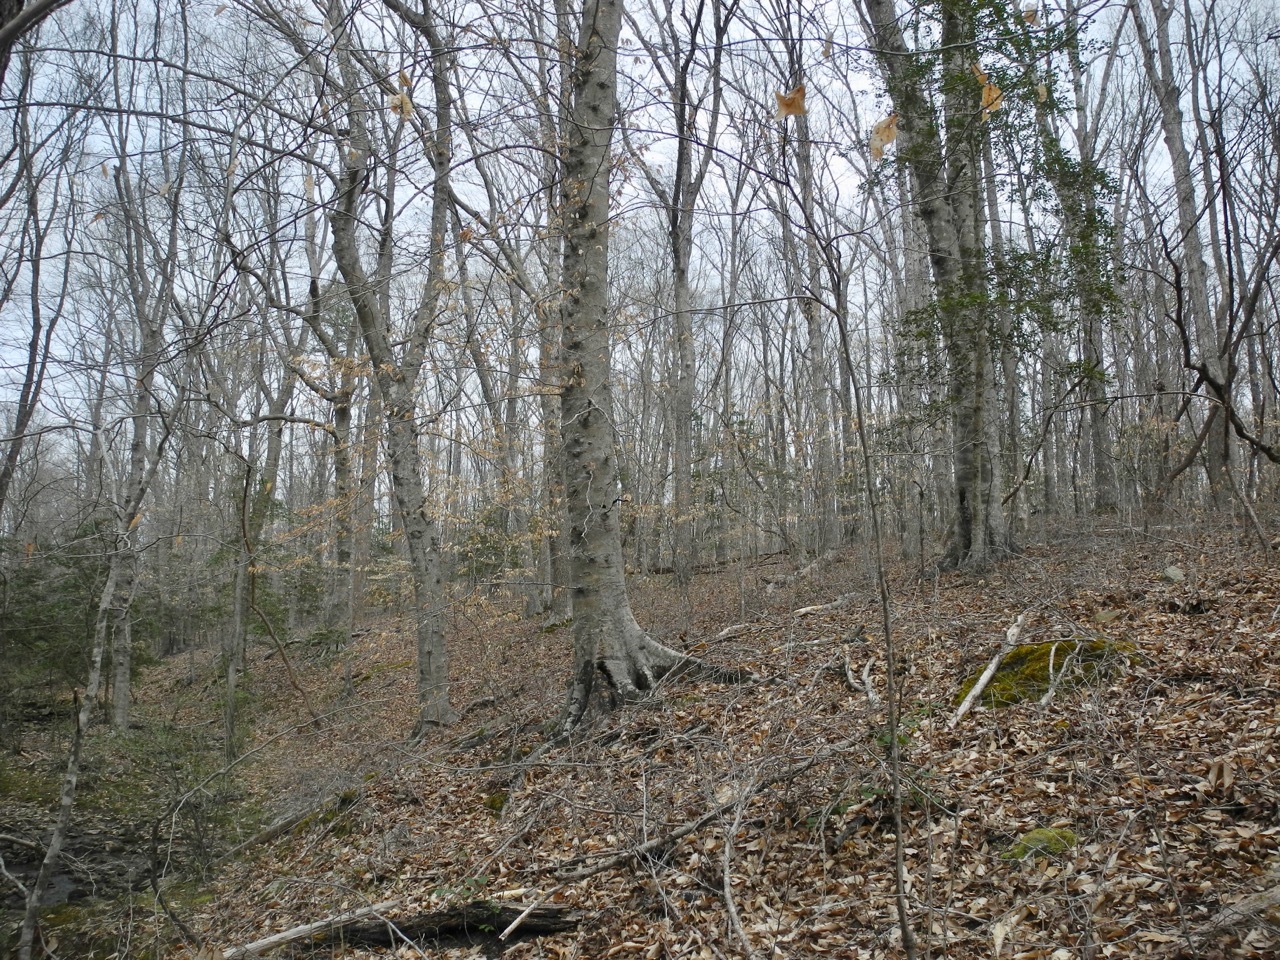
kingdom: Plantae
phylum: Tracheophyta
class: Magnoliopsida
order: Fagales
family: Fagaceae
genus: Fagus
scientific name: Fagus grandifolia
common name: American beech
